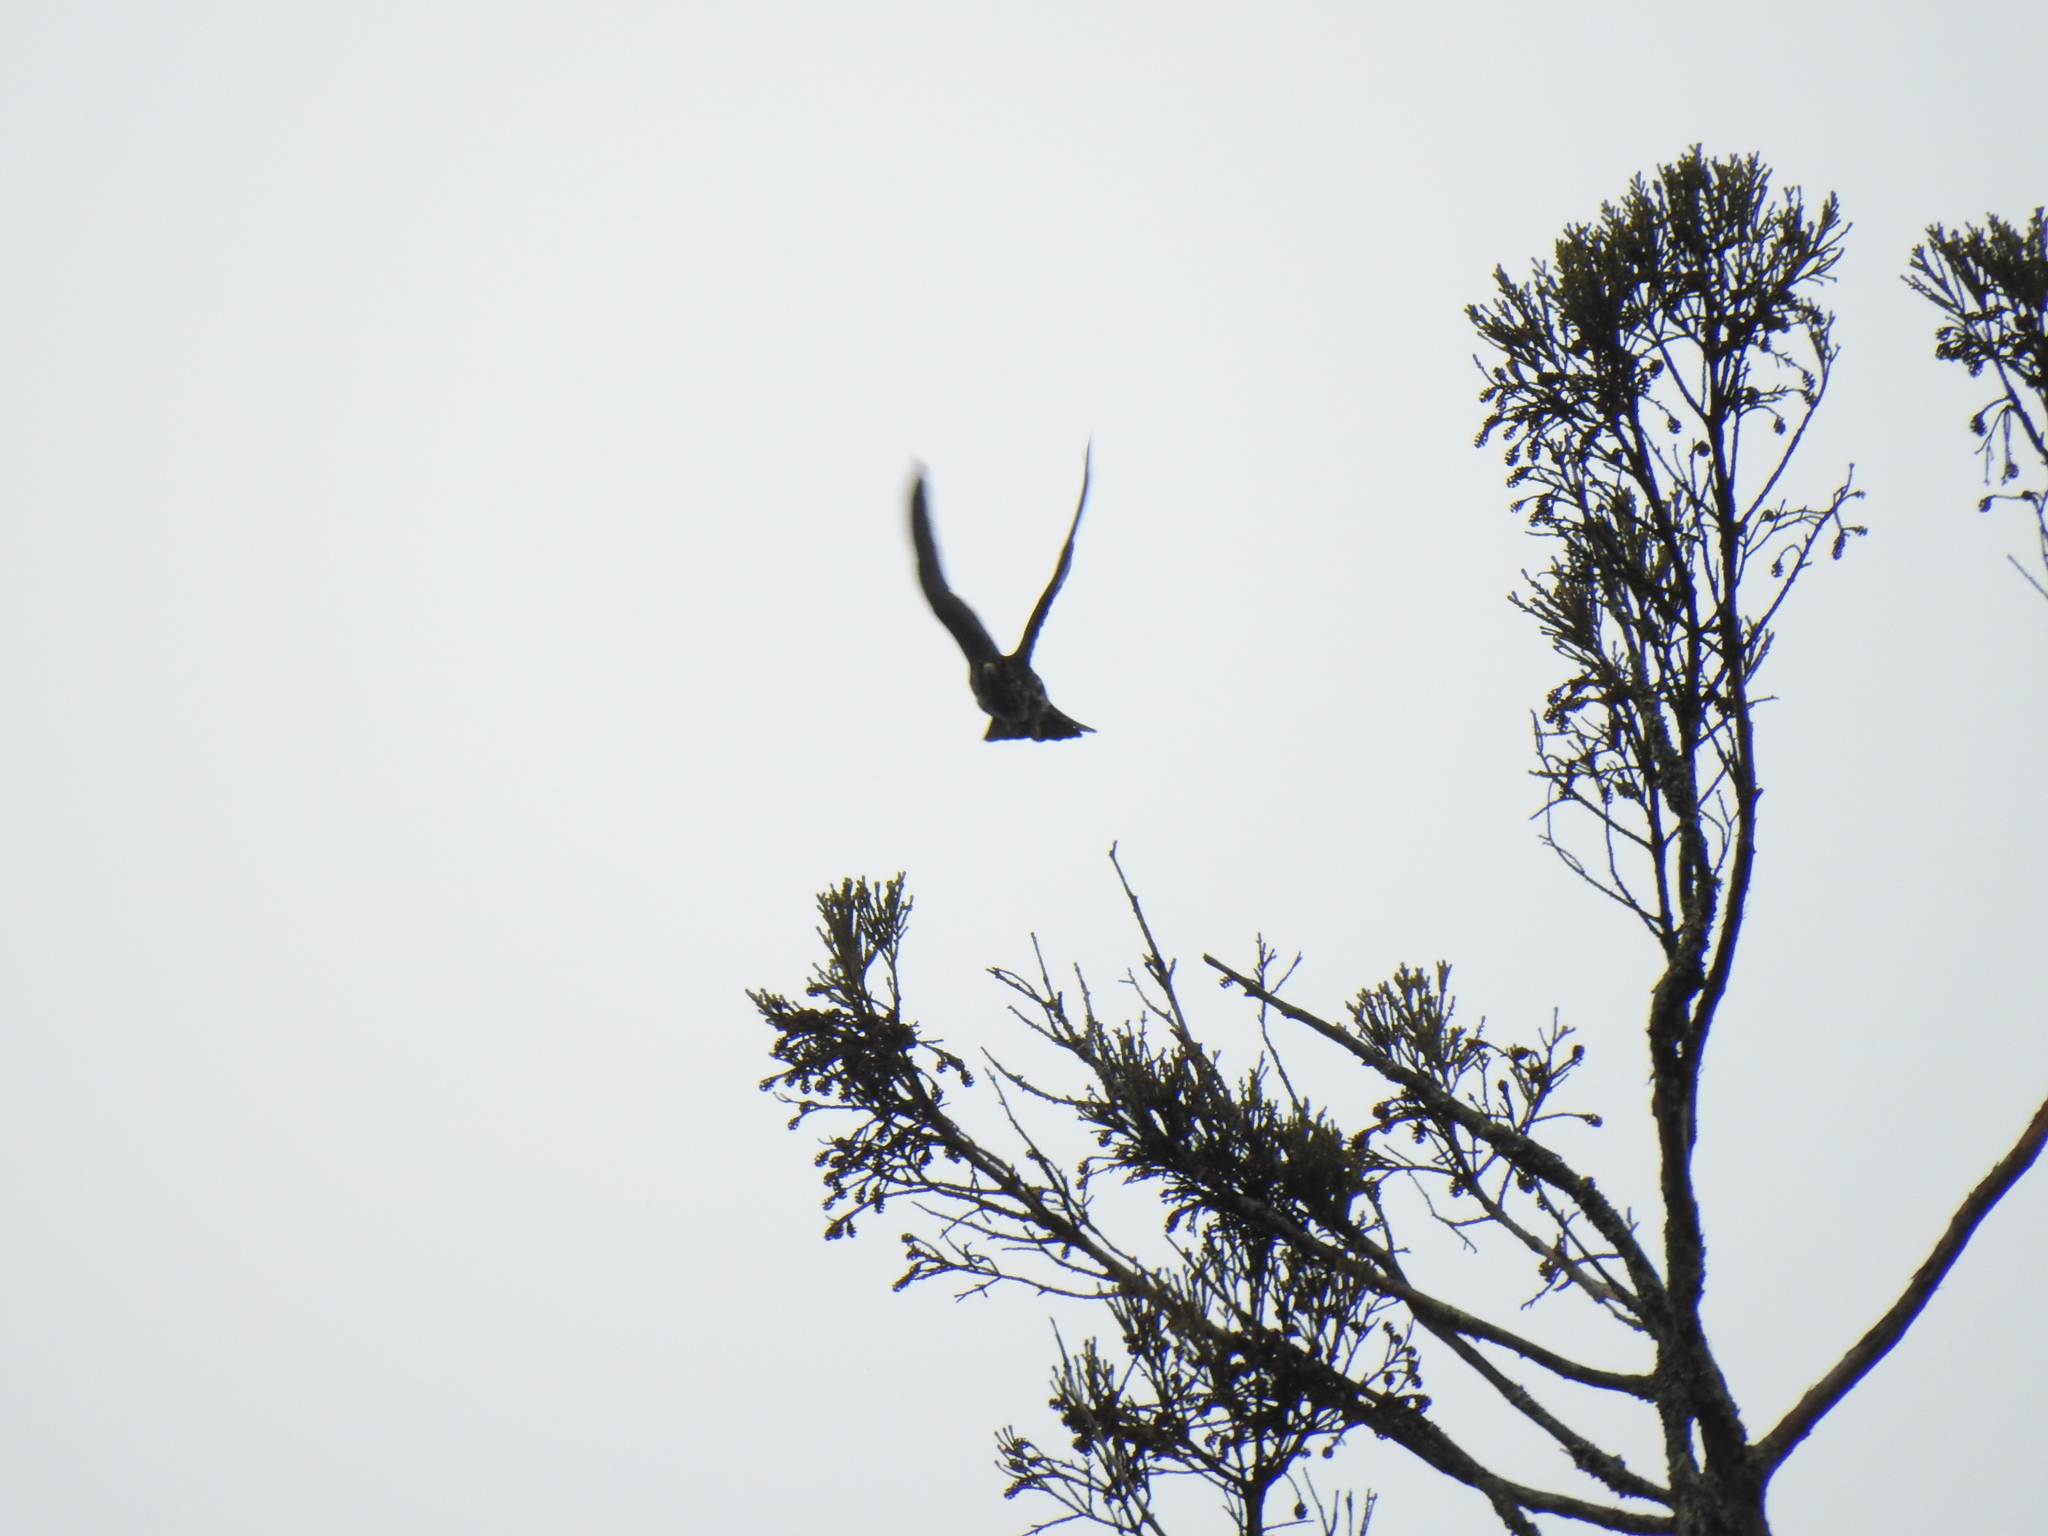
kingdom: Animalia
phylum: Chordata
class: Aves
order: Falconiformes
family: Falconidae
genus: Falco
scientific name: Falco columbarius
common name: Merlin
